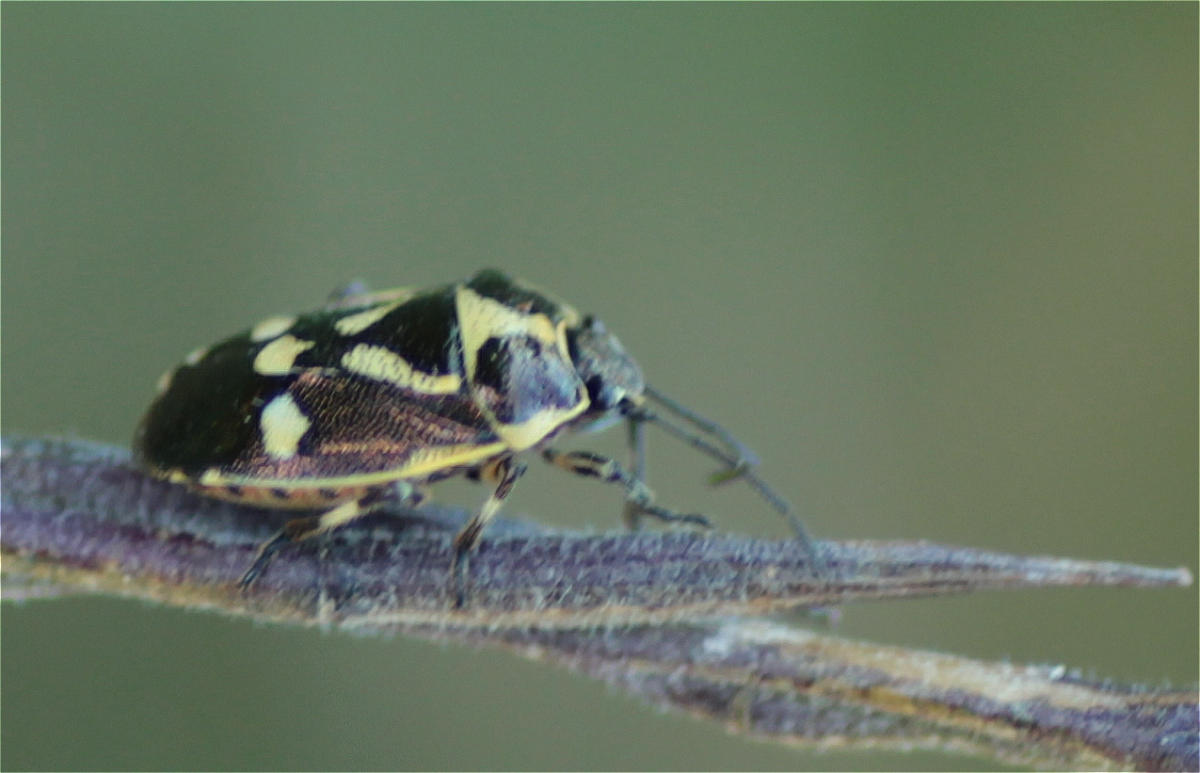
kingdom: Animalia
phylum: Arthropoda
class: Insecta
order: Hemiptera
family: Pentatomidae
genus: Eurydema
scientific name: Eurydema oleracea
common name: Cabbage bug
